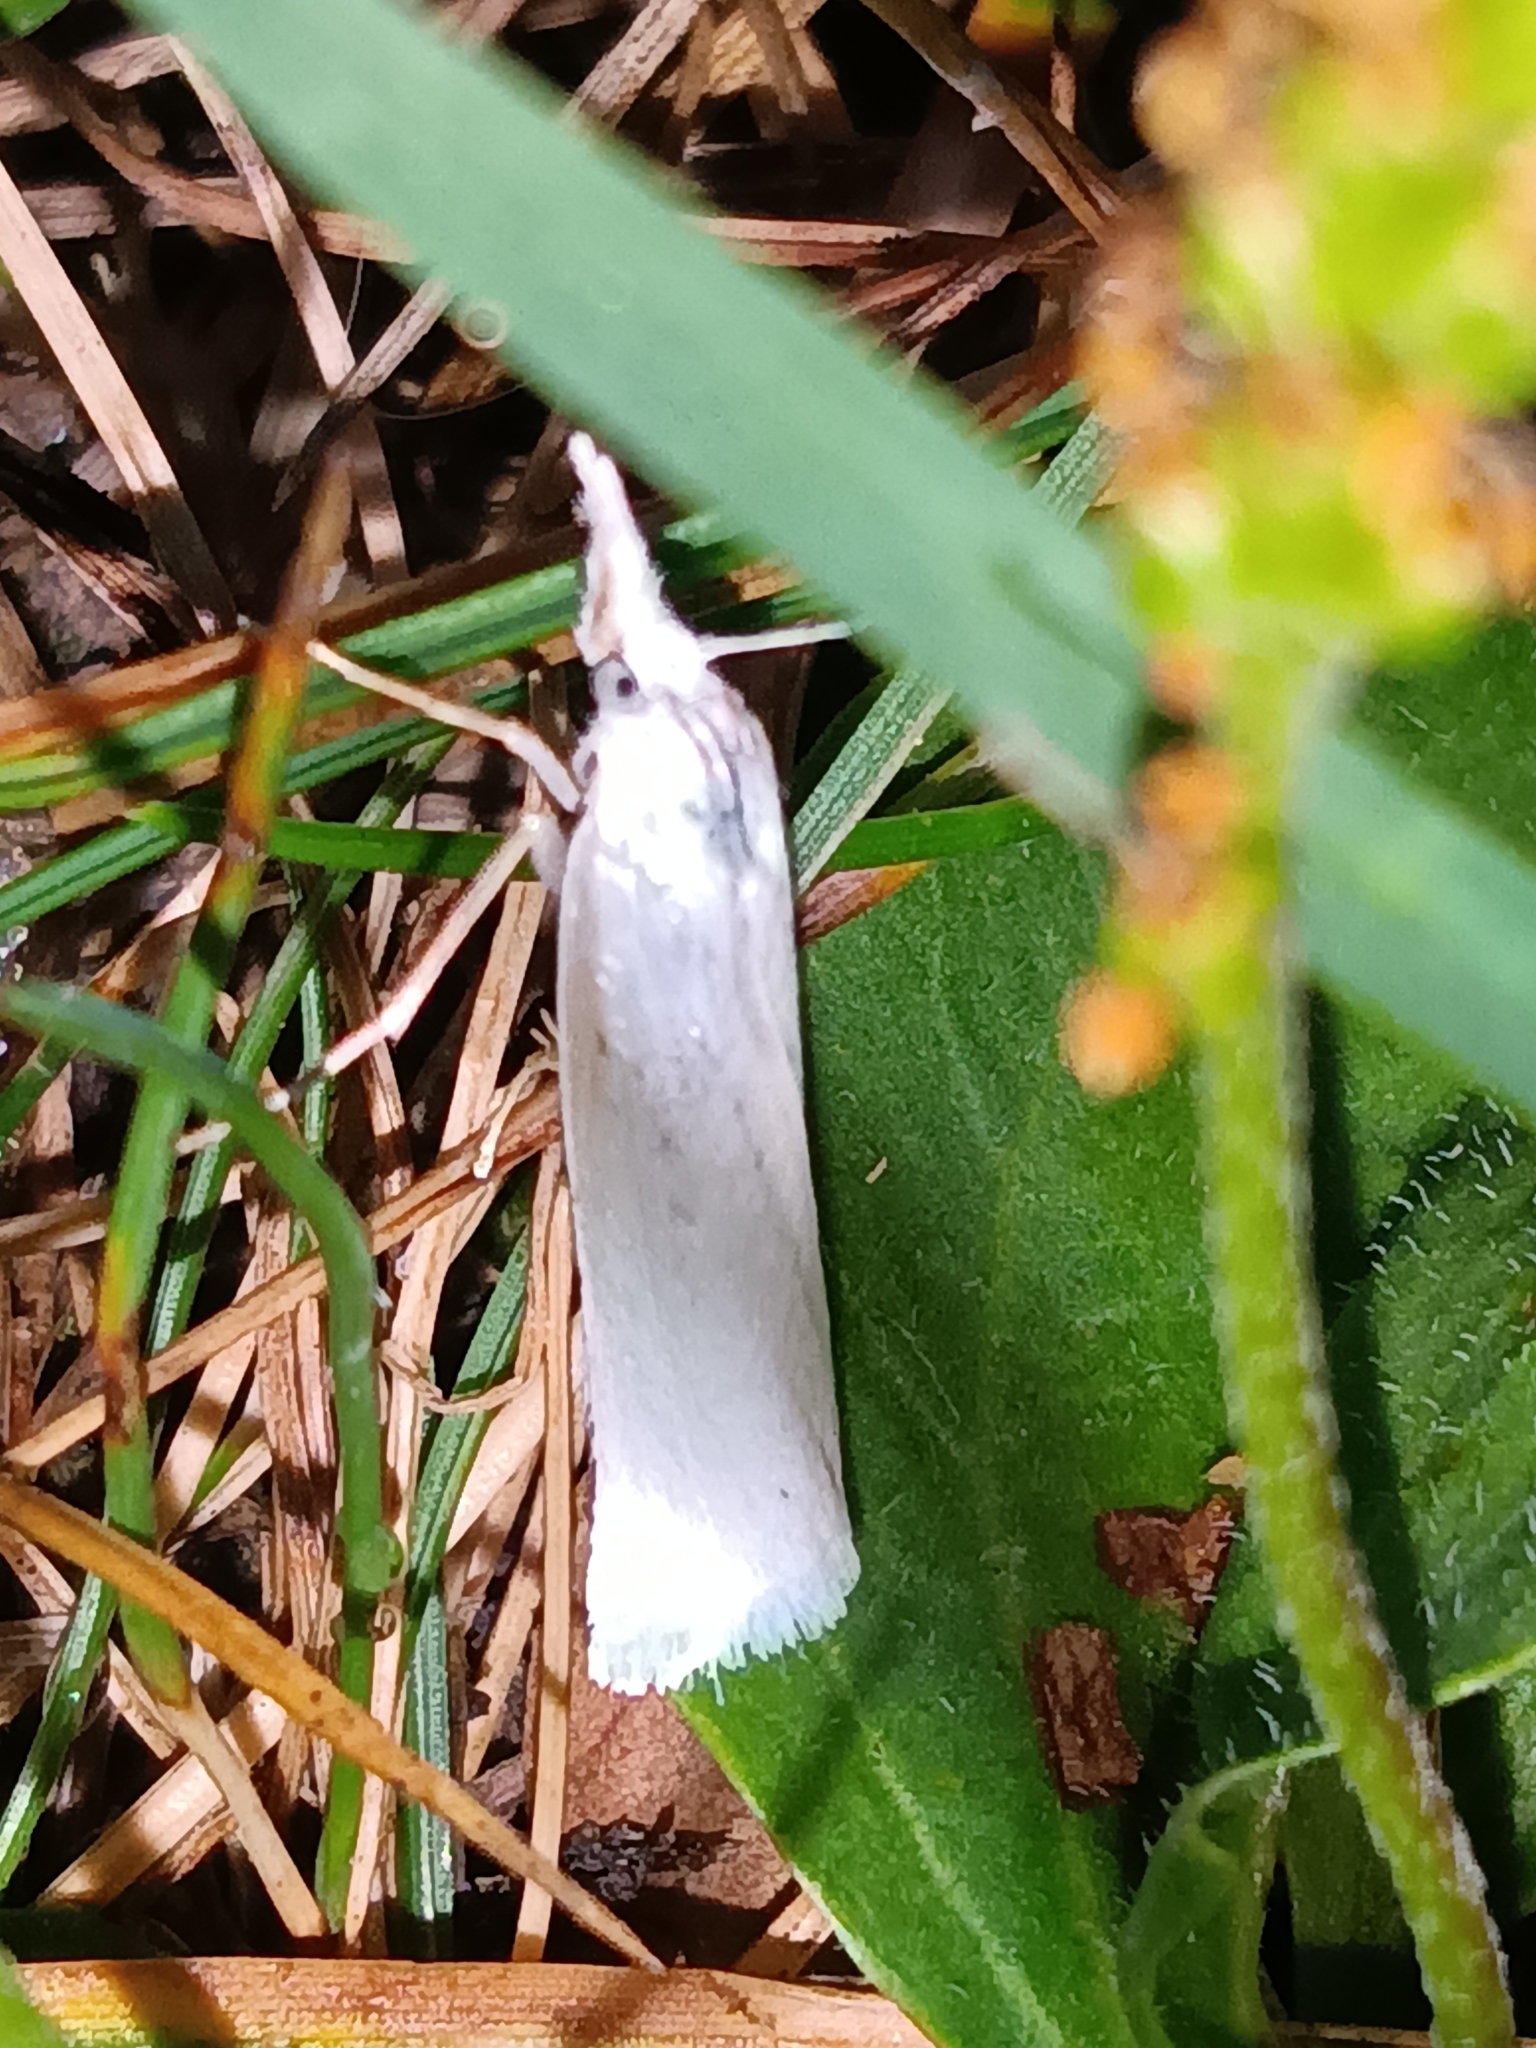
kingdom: Animalia
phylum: Arthropoda
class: Insecta
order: Lepidoptera
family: Crambidae
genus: Crambus
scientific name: Crambus perlellus
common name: Yellow satin veneer
